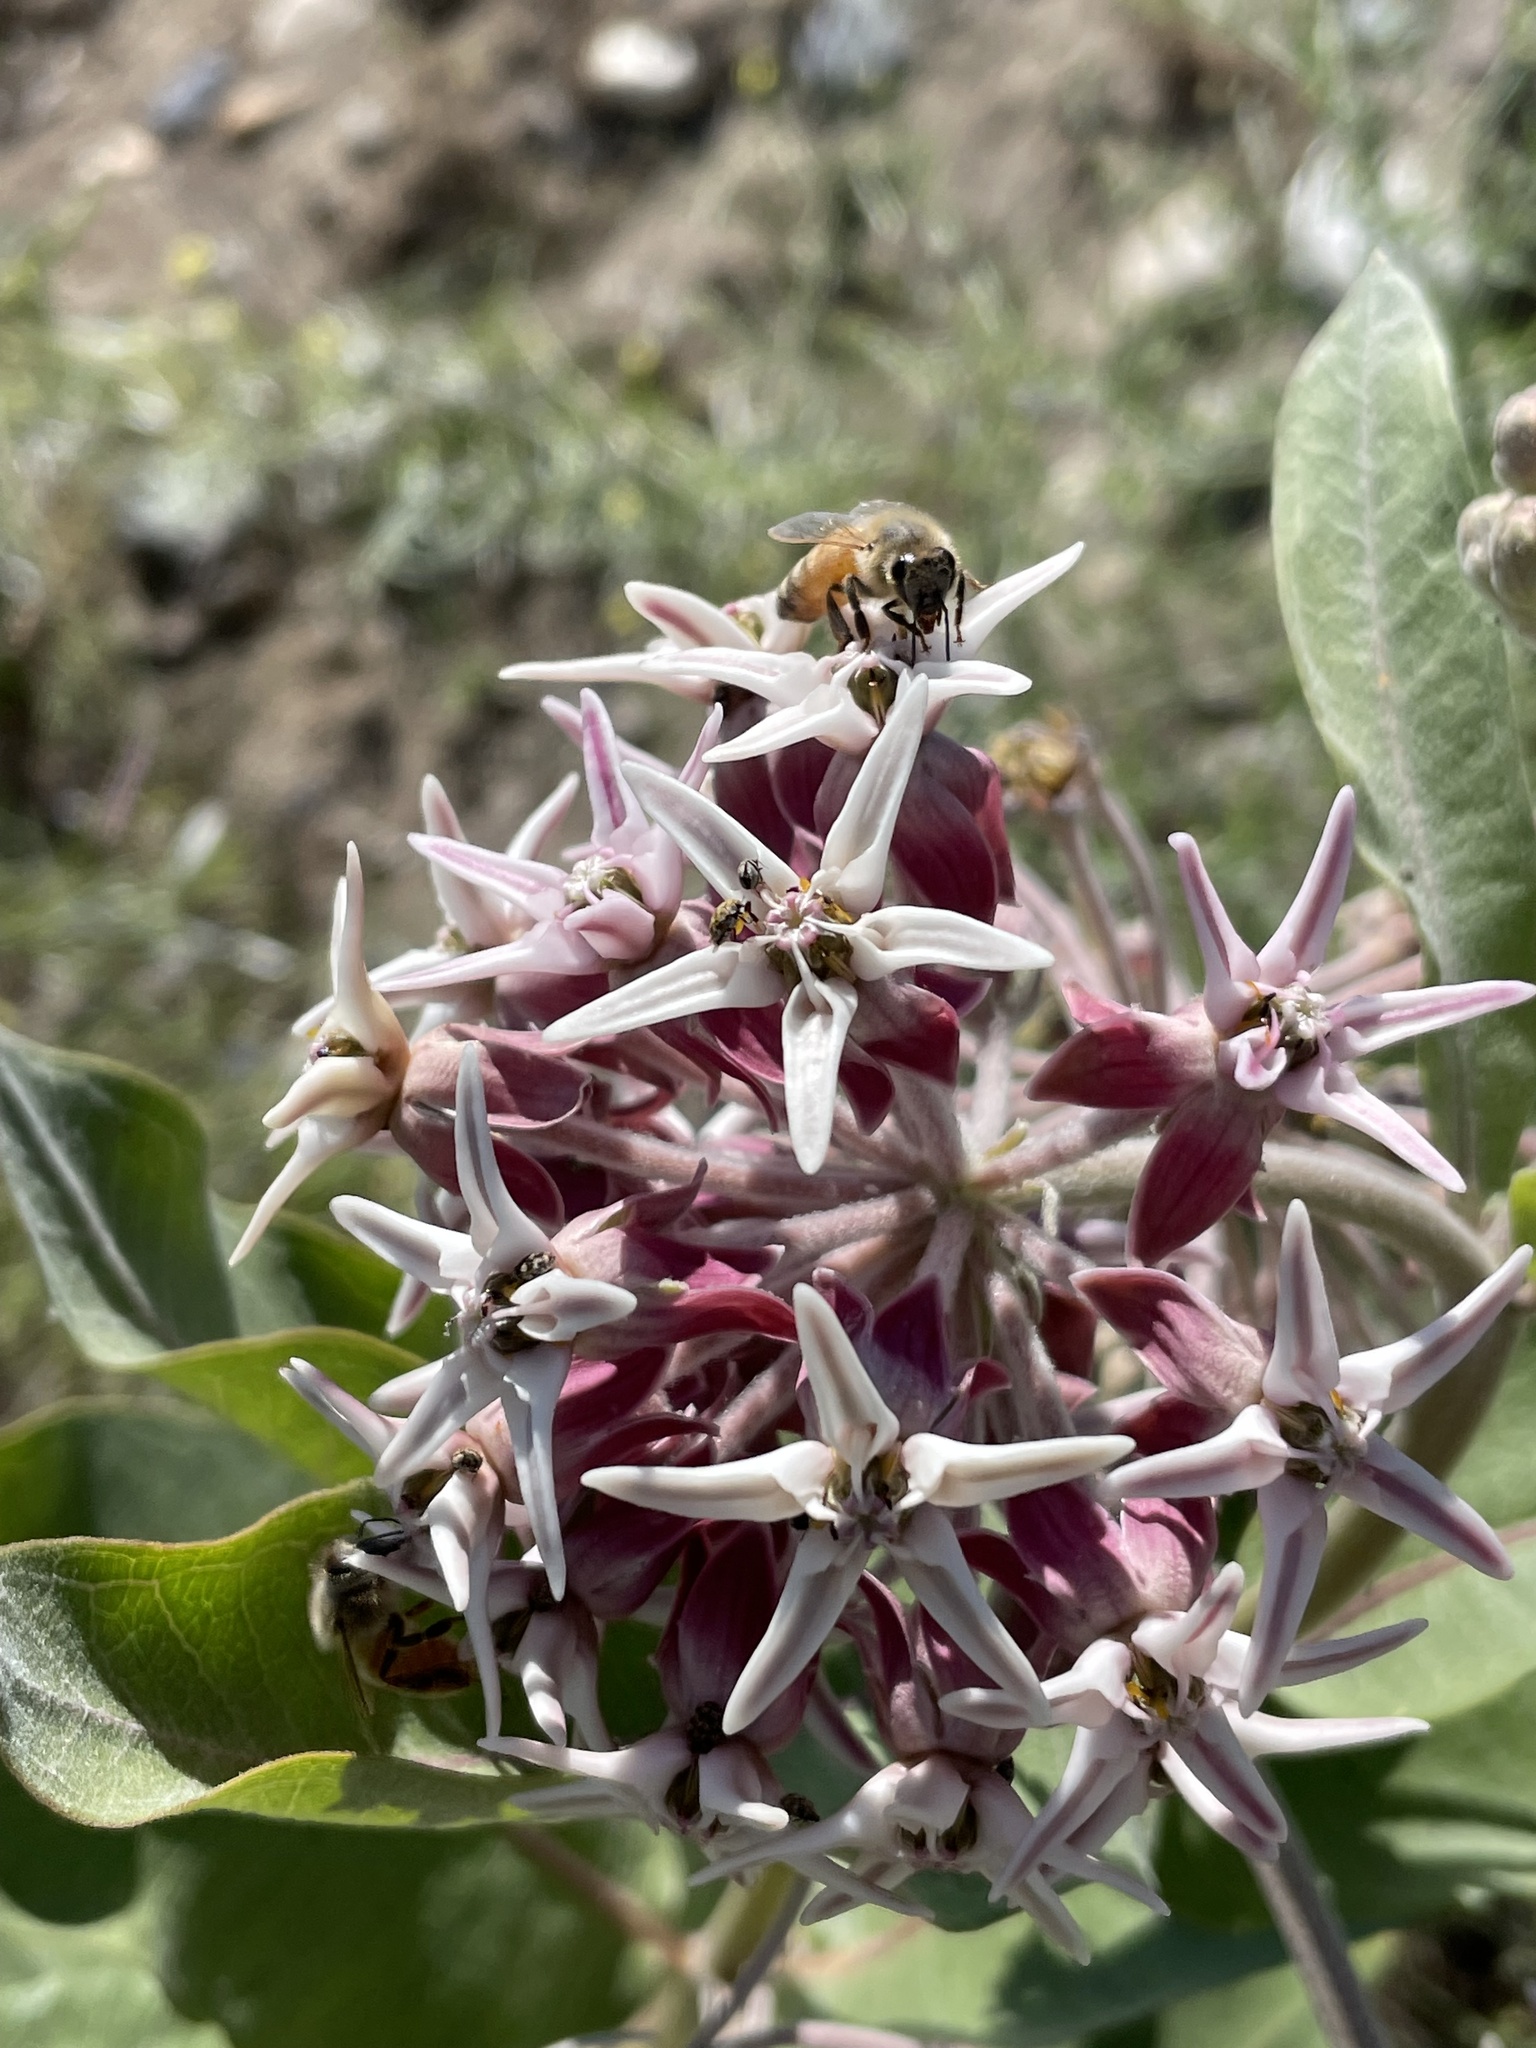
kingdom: Plantae
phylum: Tracheophyta
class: Magnoliopsida
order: Gentianales
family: Apocynaceae
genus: Asclepias
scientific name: Asclepias speciosa
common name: Showy milkweed
